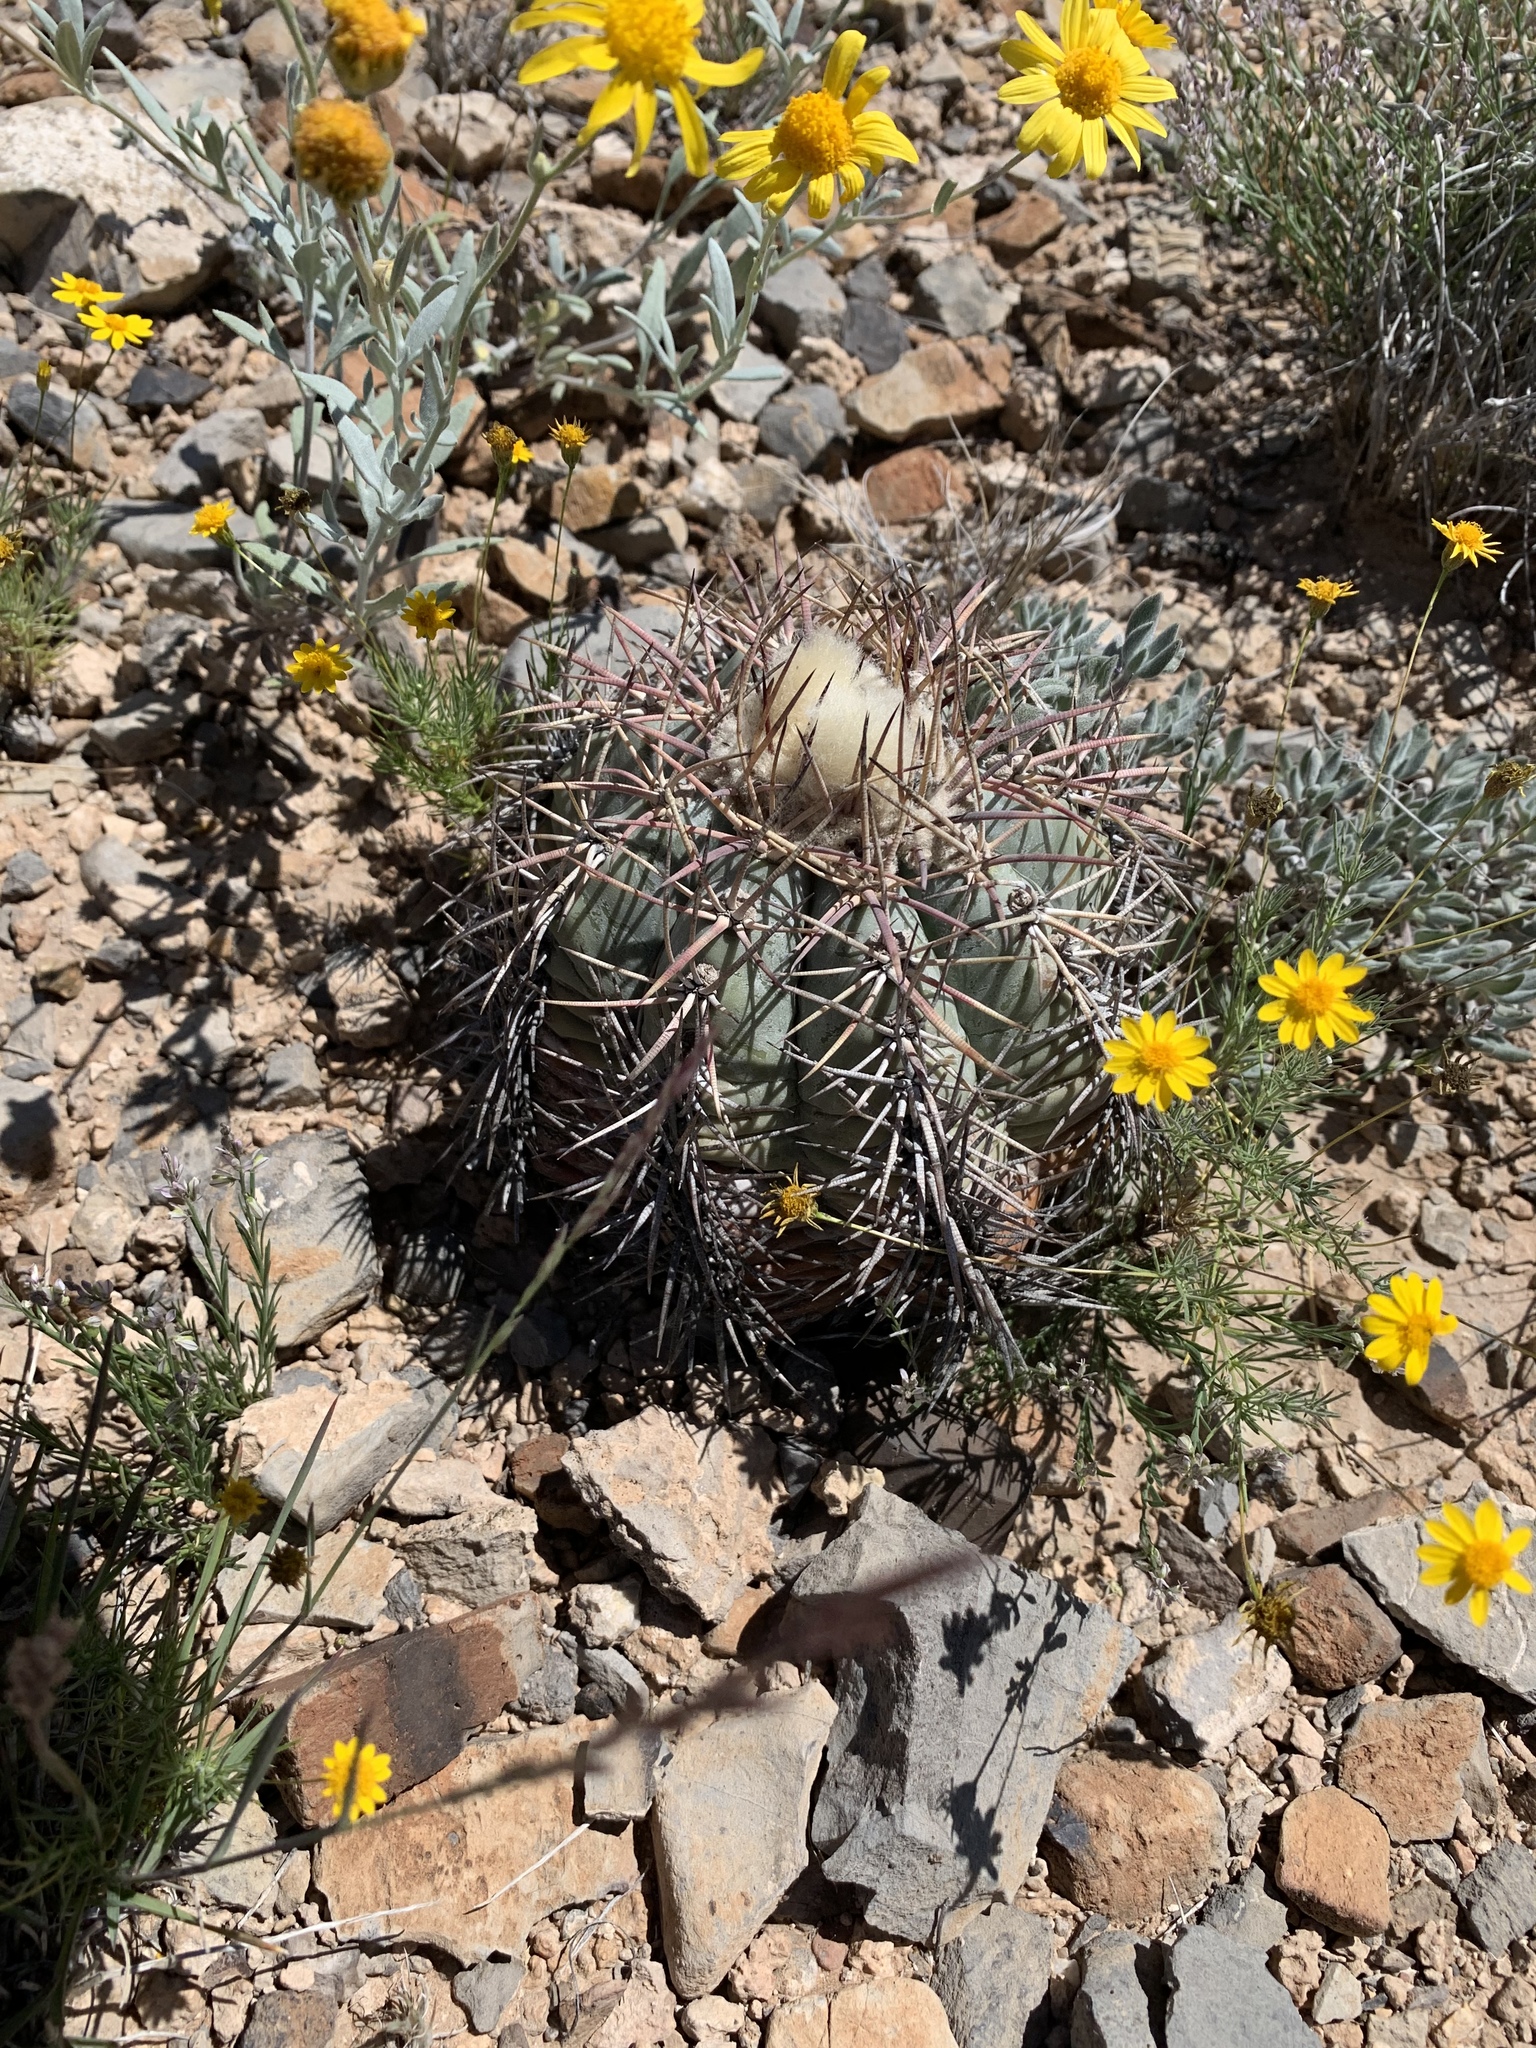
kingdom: Plantae
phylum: Tracheophyta
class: Magnoliopsida
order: Caryophyllales
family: Cactaceae
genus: Echinocactus
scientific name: Echinocactus horizonthalonius
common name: Devilshead
